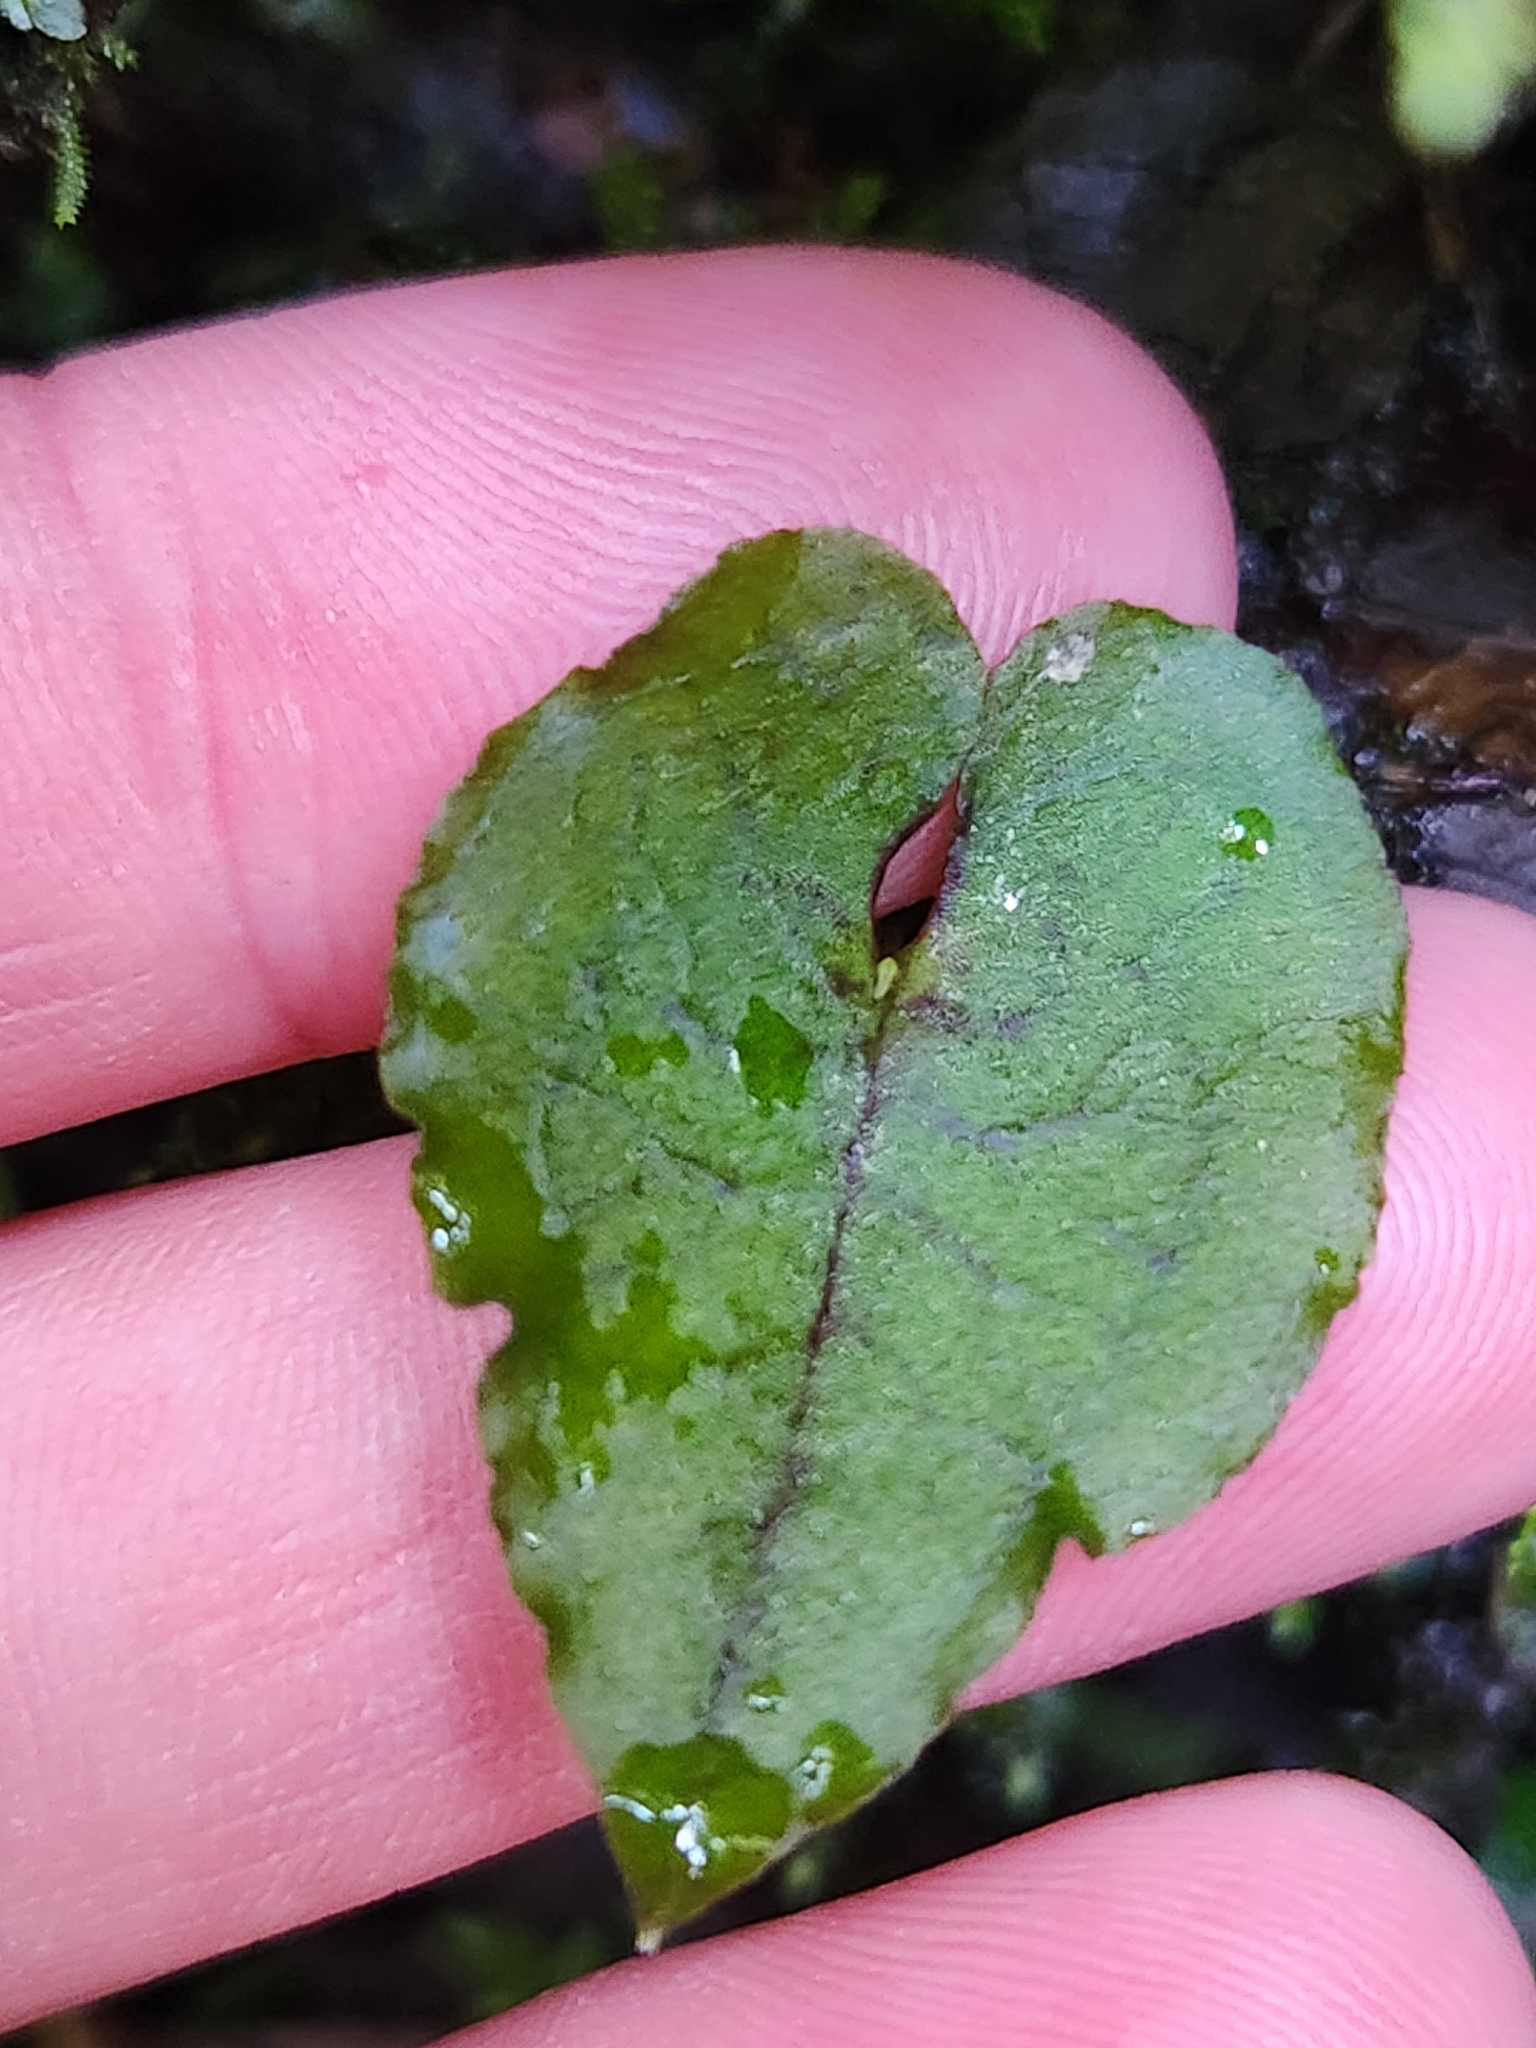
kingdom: Plantae
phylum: Tracheophyta
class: Liliopsida
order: Asparagales
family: Orchidaceae
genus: Corybas
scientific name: Corybas acuminatus
